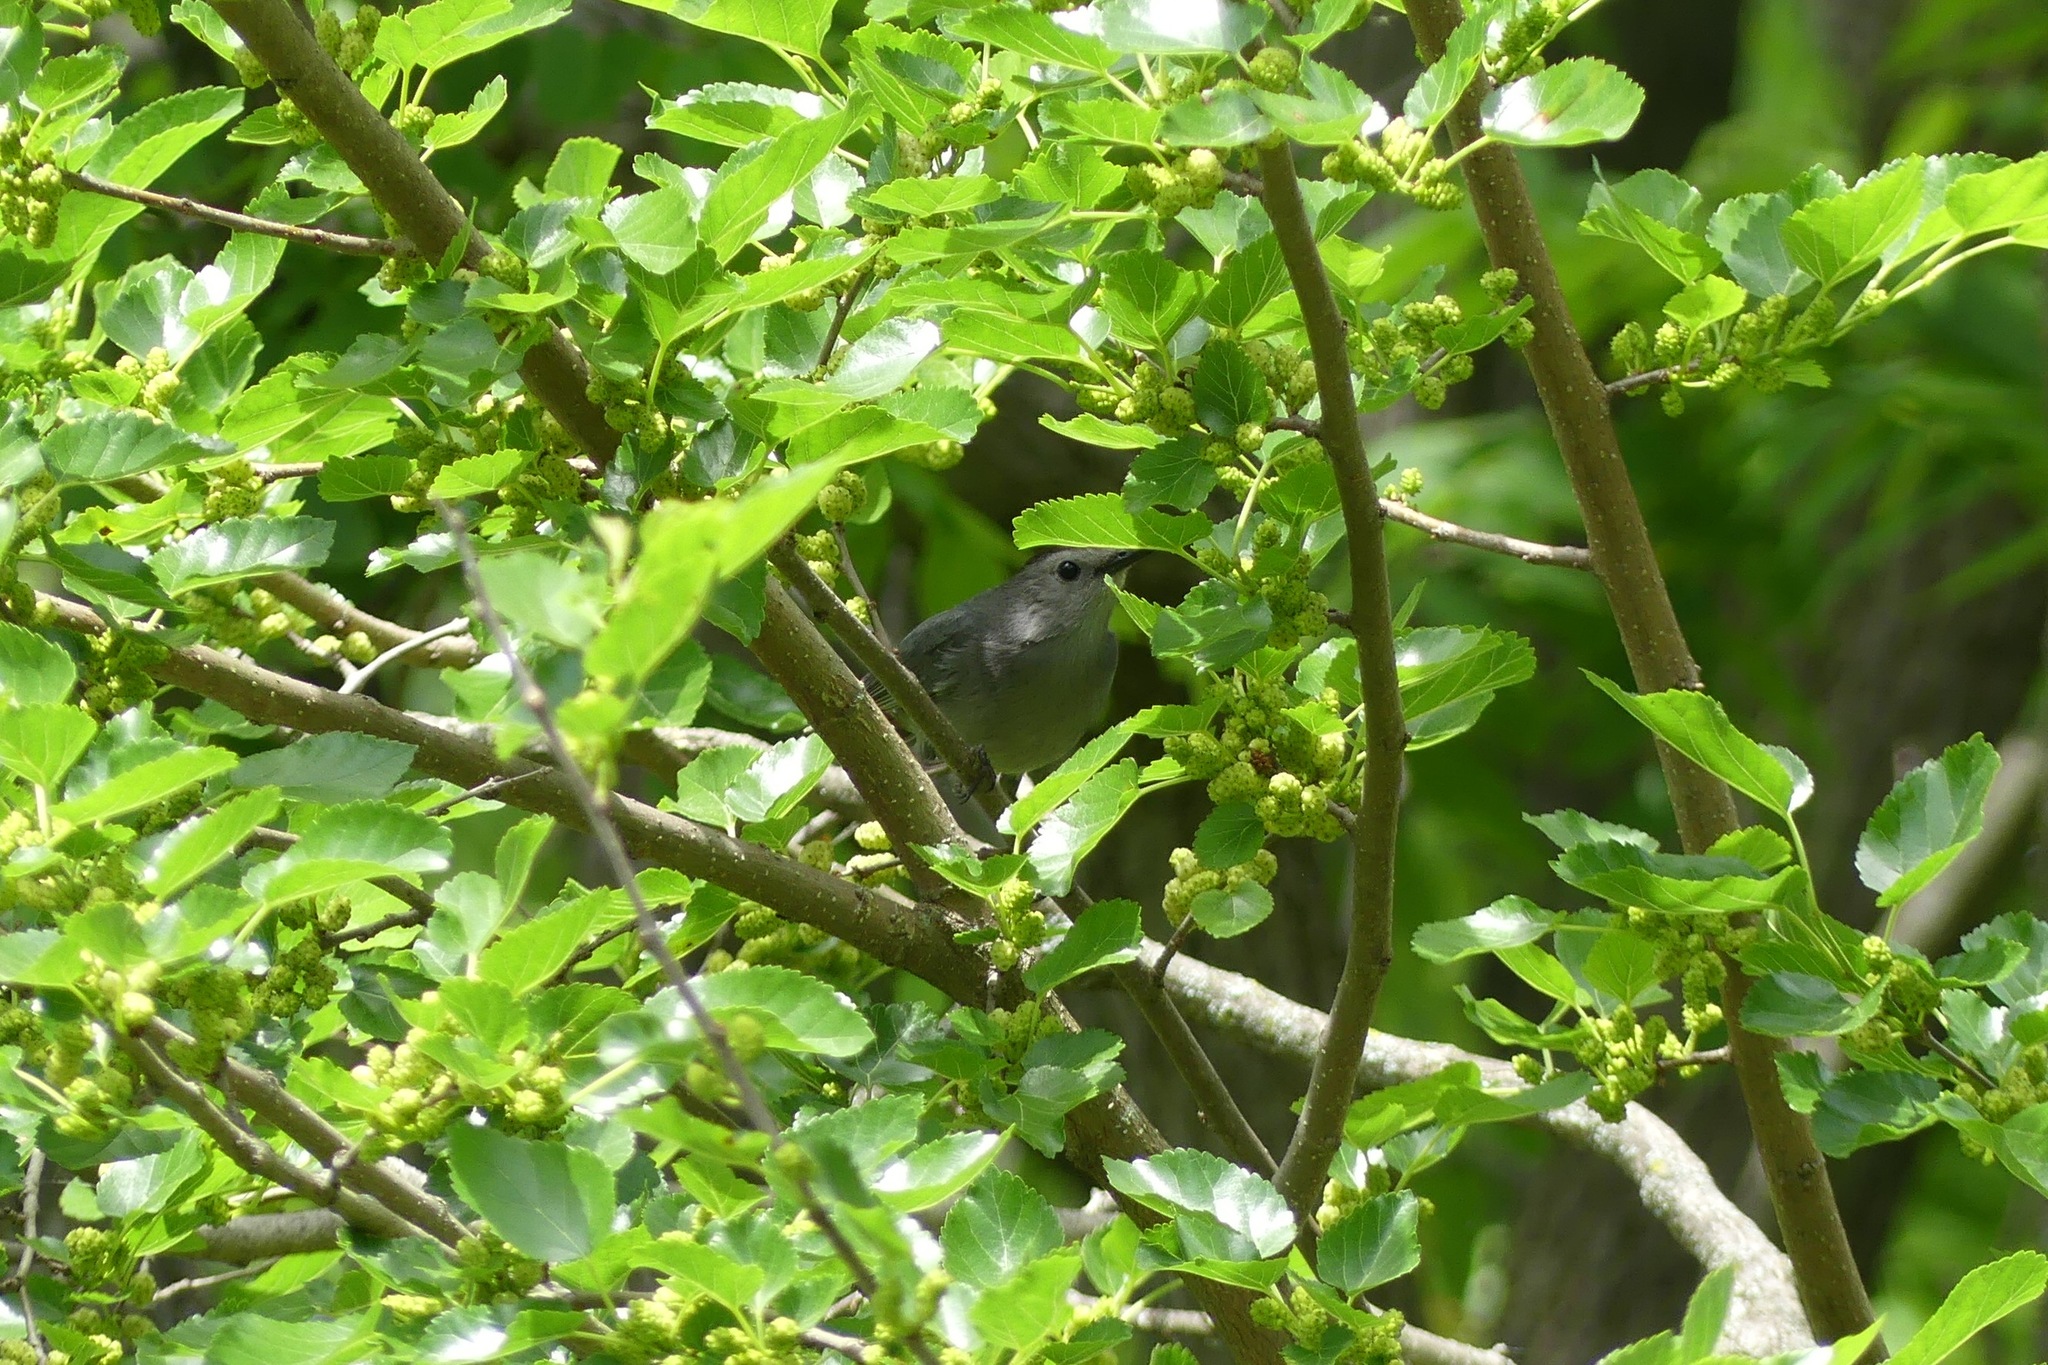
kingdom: Animalia
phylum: Chordata
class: Aves
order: Passeriformes
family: Mimidae
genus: Dumetella
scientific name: Dumetella carolinensis
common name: Gray catbird
